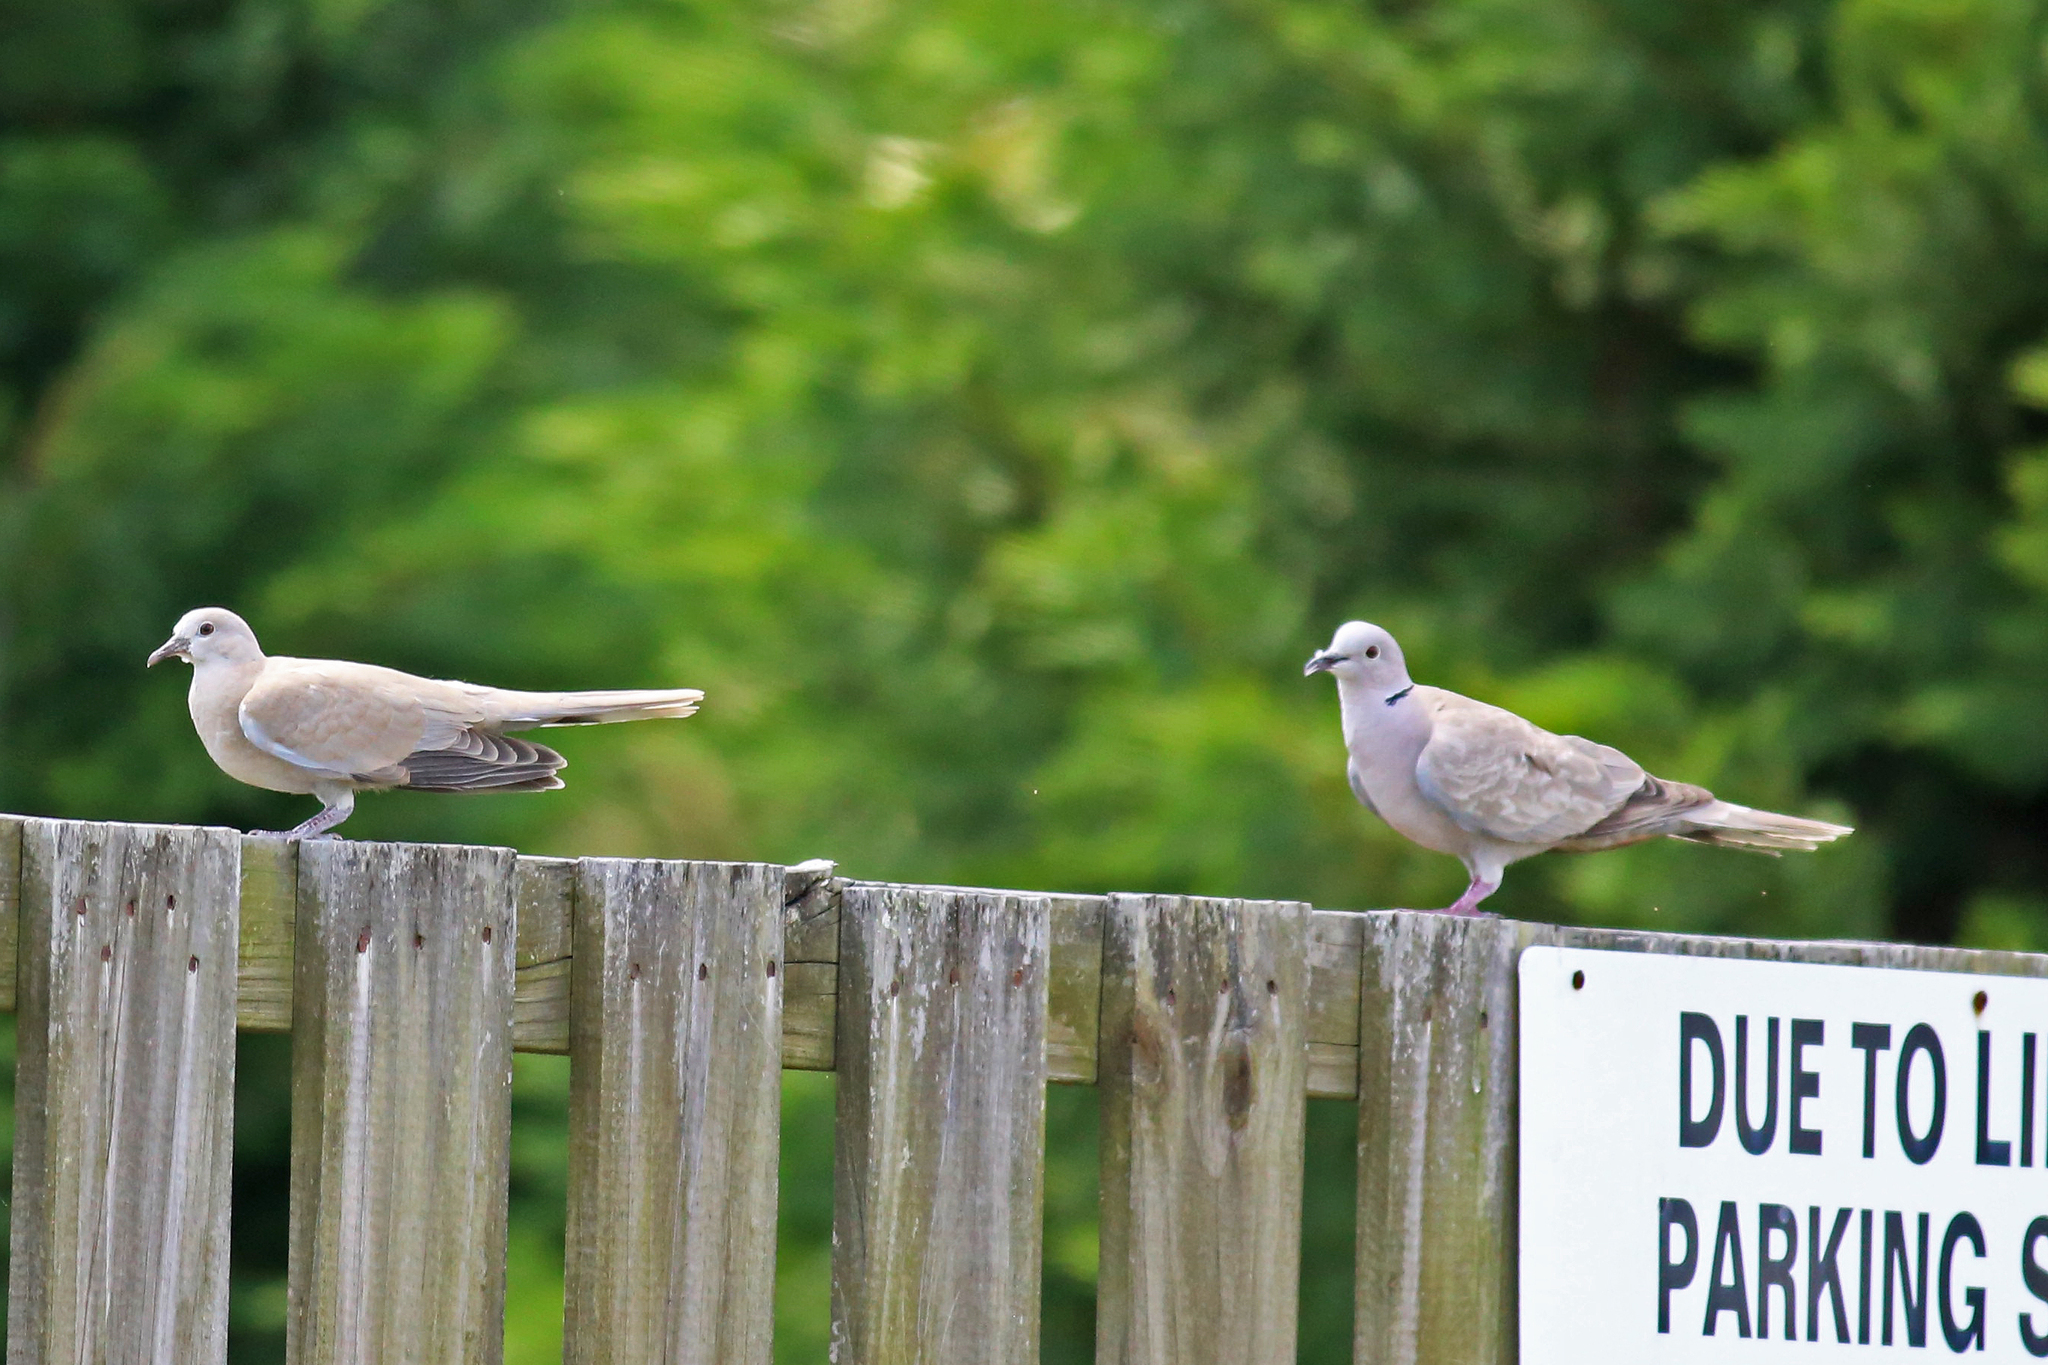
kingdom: Animalia
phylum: Chordata
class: Aves
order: Columbiformes
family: Columbidae
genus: Streptopelia
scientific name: Streptopelia decaocto
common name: Eurasian collared dove
